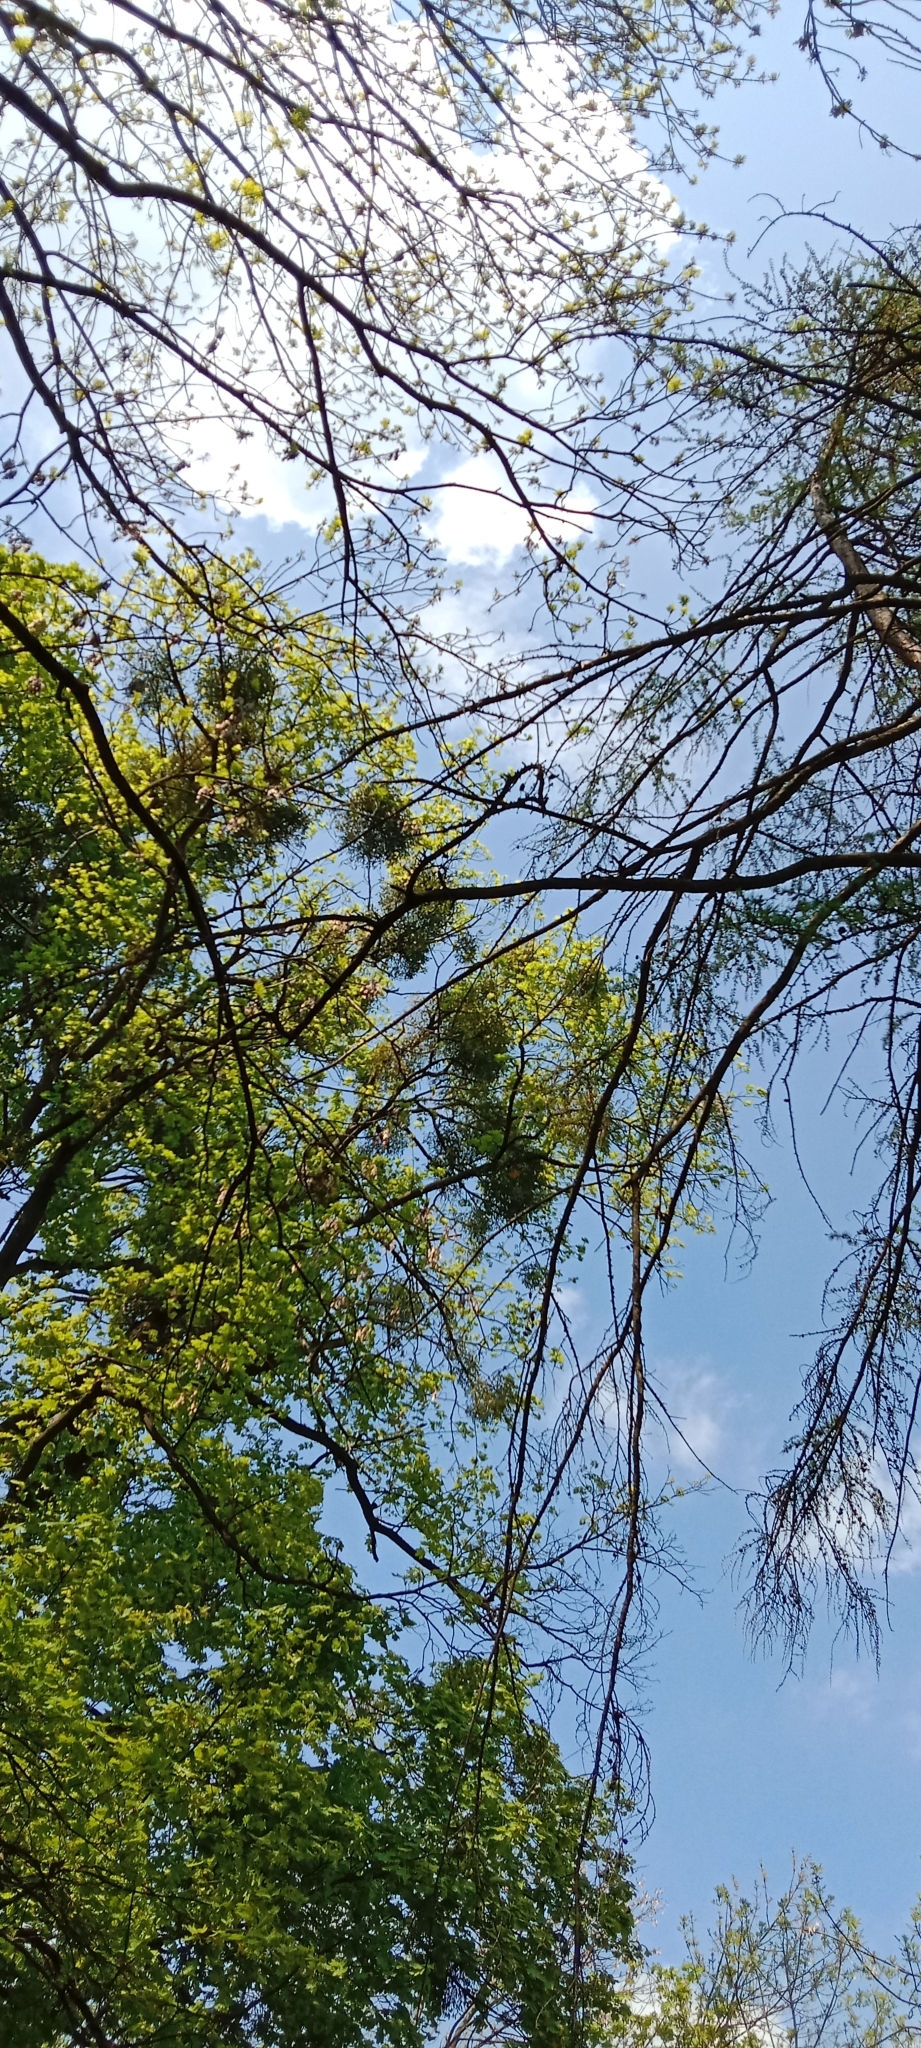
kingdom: Plantae
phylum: Tracheophyta
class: Magnoliopsida
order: Santalales
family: Viscaceae
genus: Viscum
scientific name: Viscum album
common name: Mistletoe
